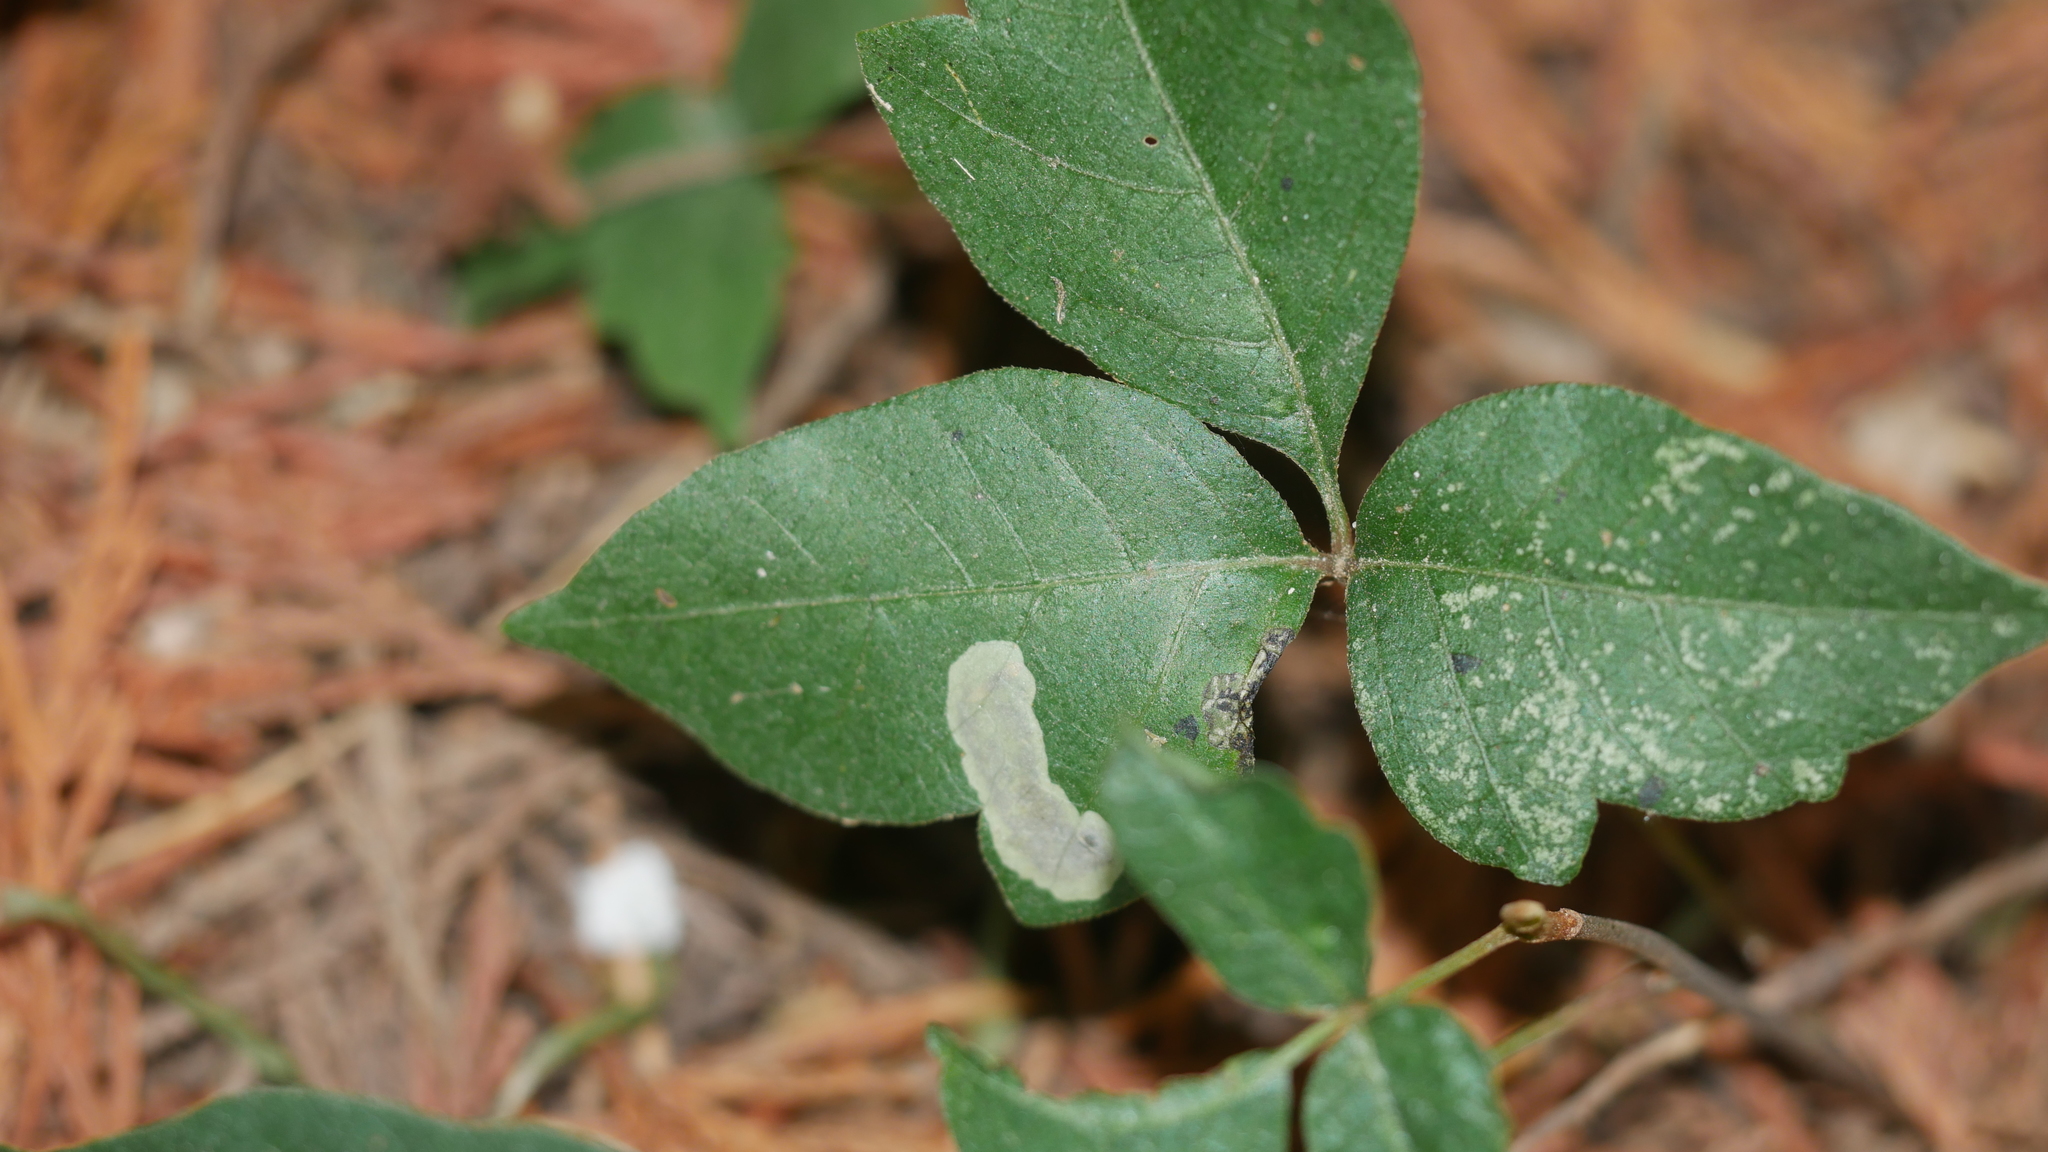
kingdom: Animalia
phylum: Arthropoda
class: Insecta
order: Lepidoptera
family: Gracillariidae
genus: Cameraria
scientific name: Cameraria guttifinitella
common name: Poison ivy leaf-miner moth
